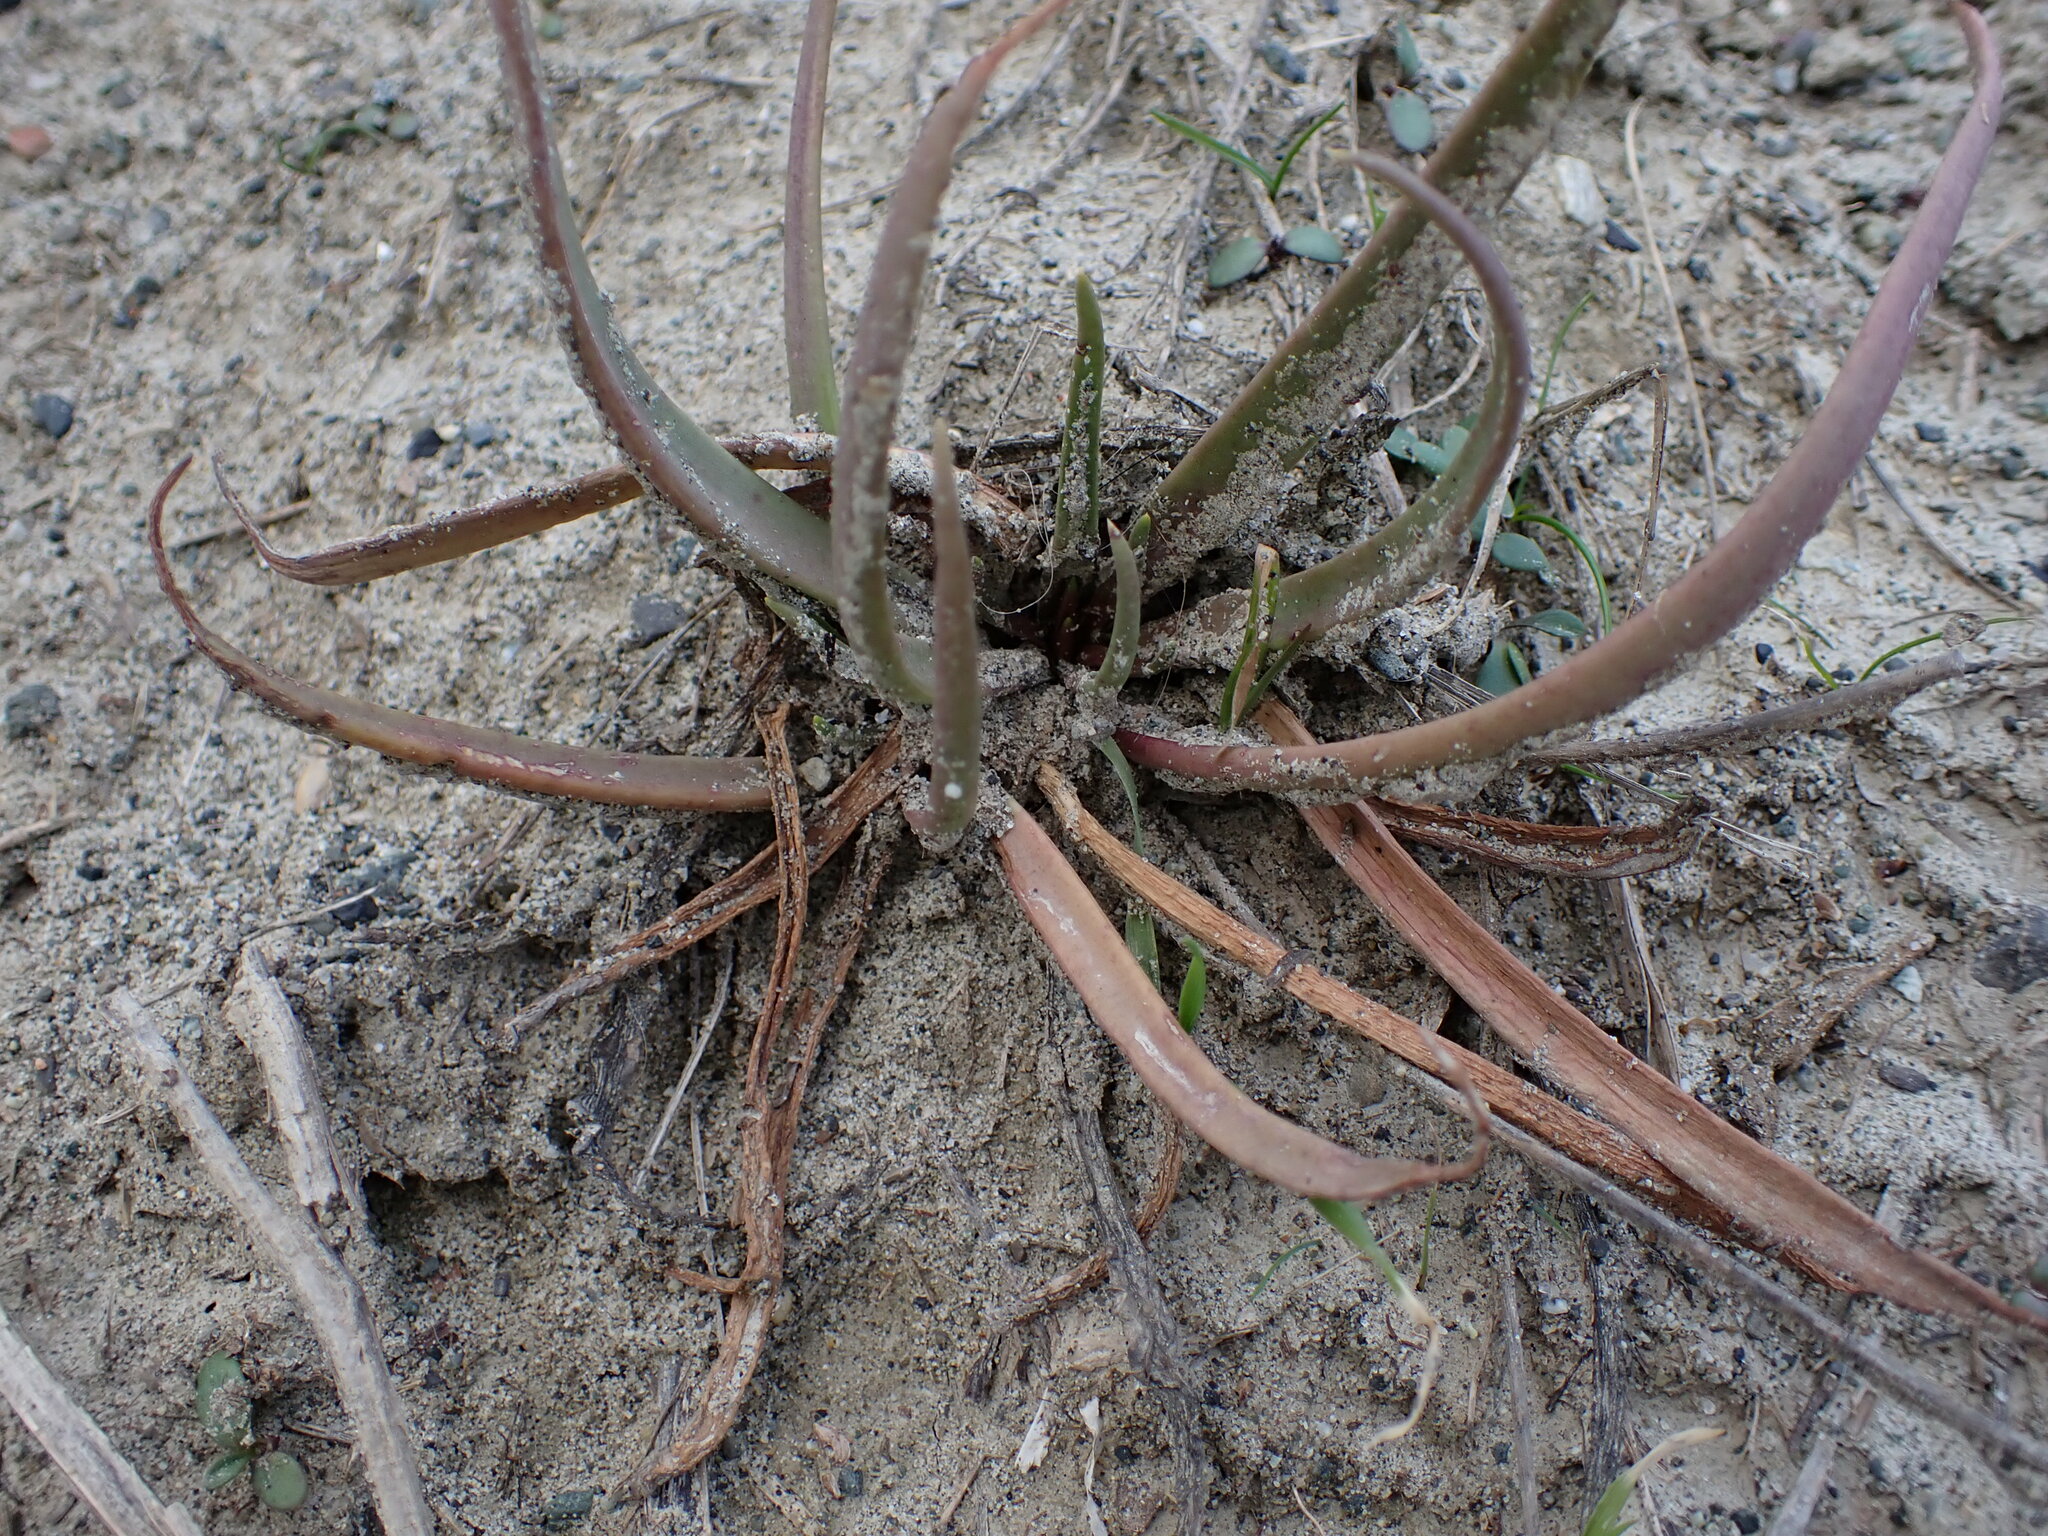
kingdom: Plantae
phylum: Tracheophyta
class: Magnoliopsida
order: Lamiales
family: Plantaginaceae
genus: Plantago
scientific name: Plantago maritima
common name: Sea plantain
